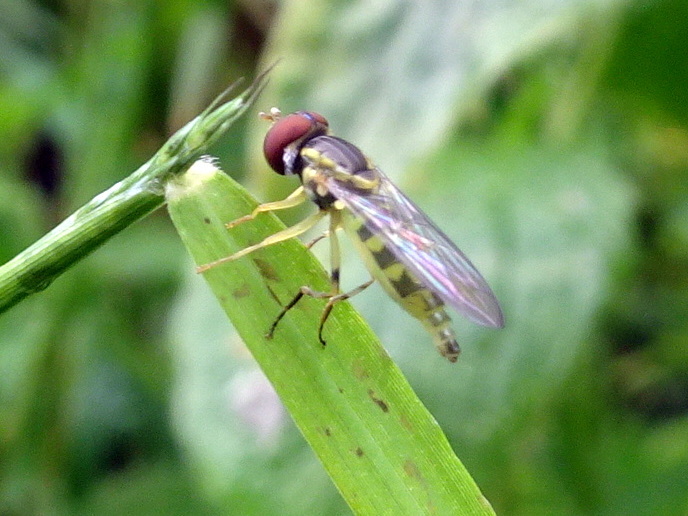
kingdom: Animalia
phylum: Arthropoda
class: Insecta
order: Diptera
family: Syrphidae
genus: Toxomerus
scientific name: Toxomerus geminatus
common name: Eastern calligrapher
